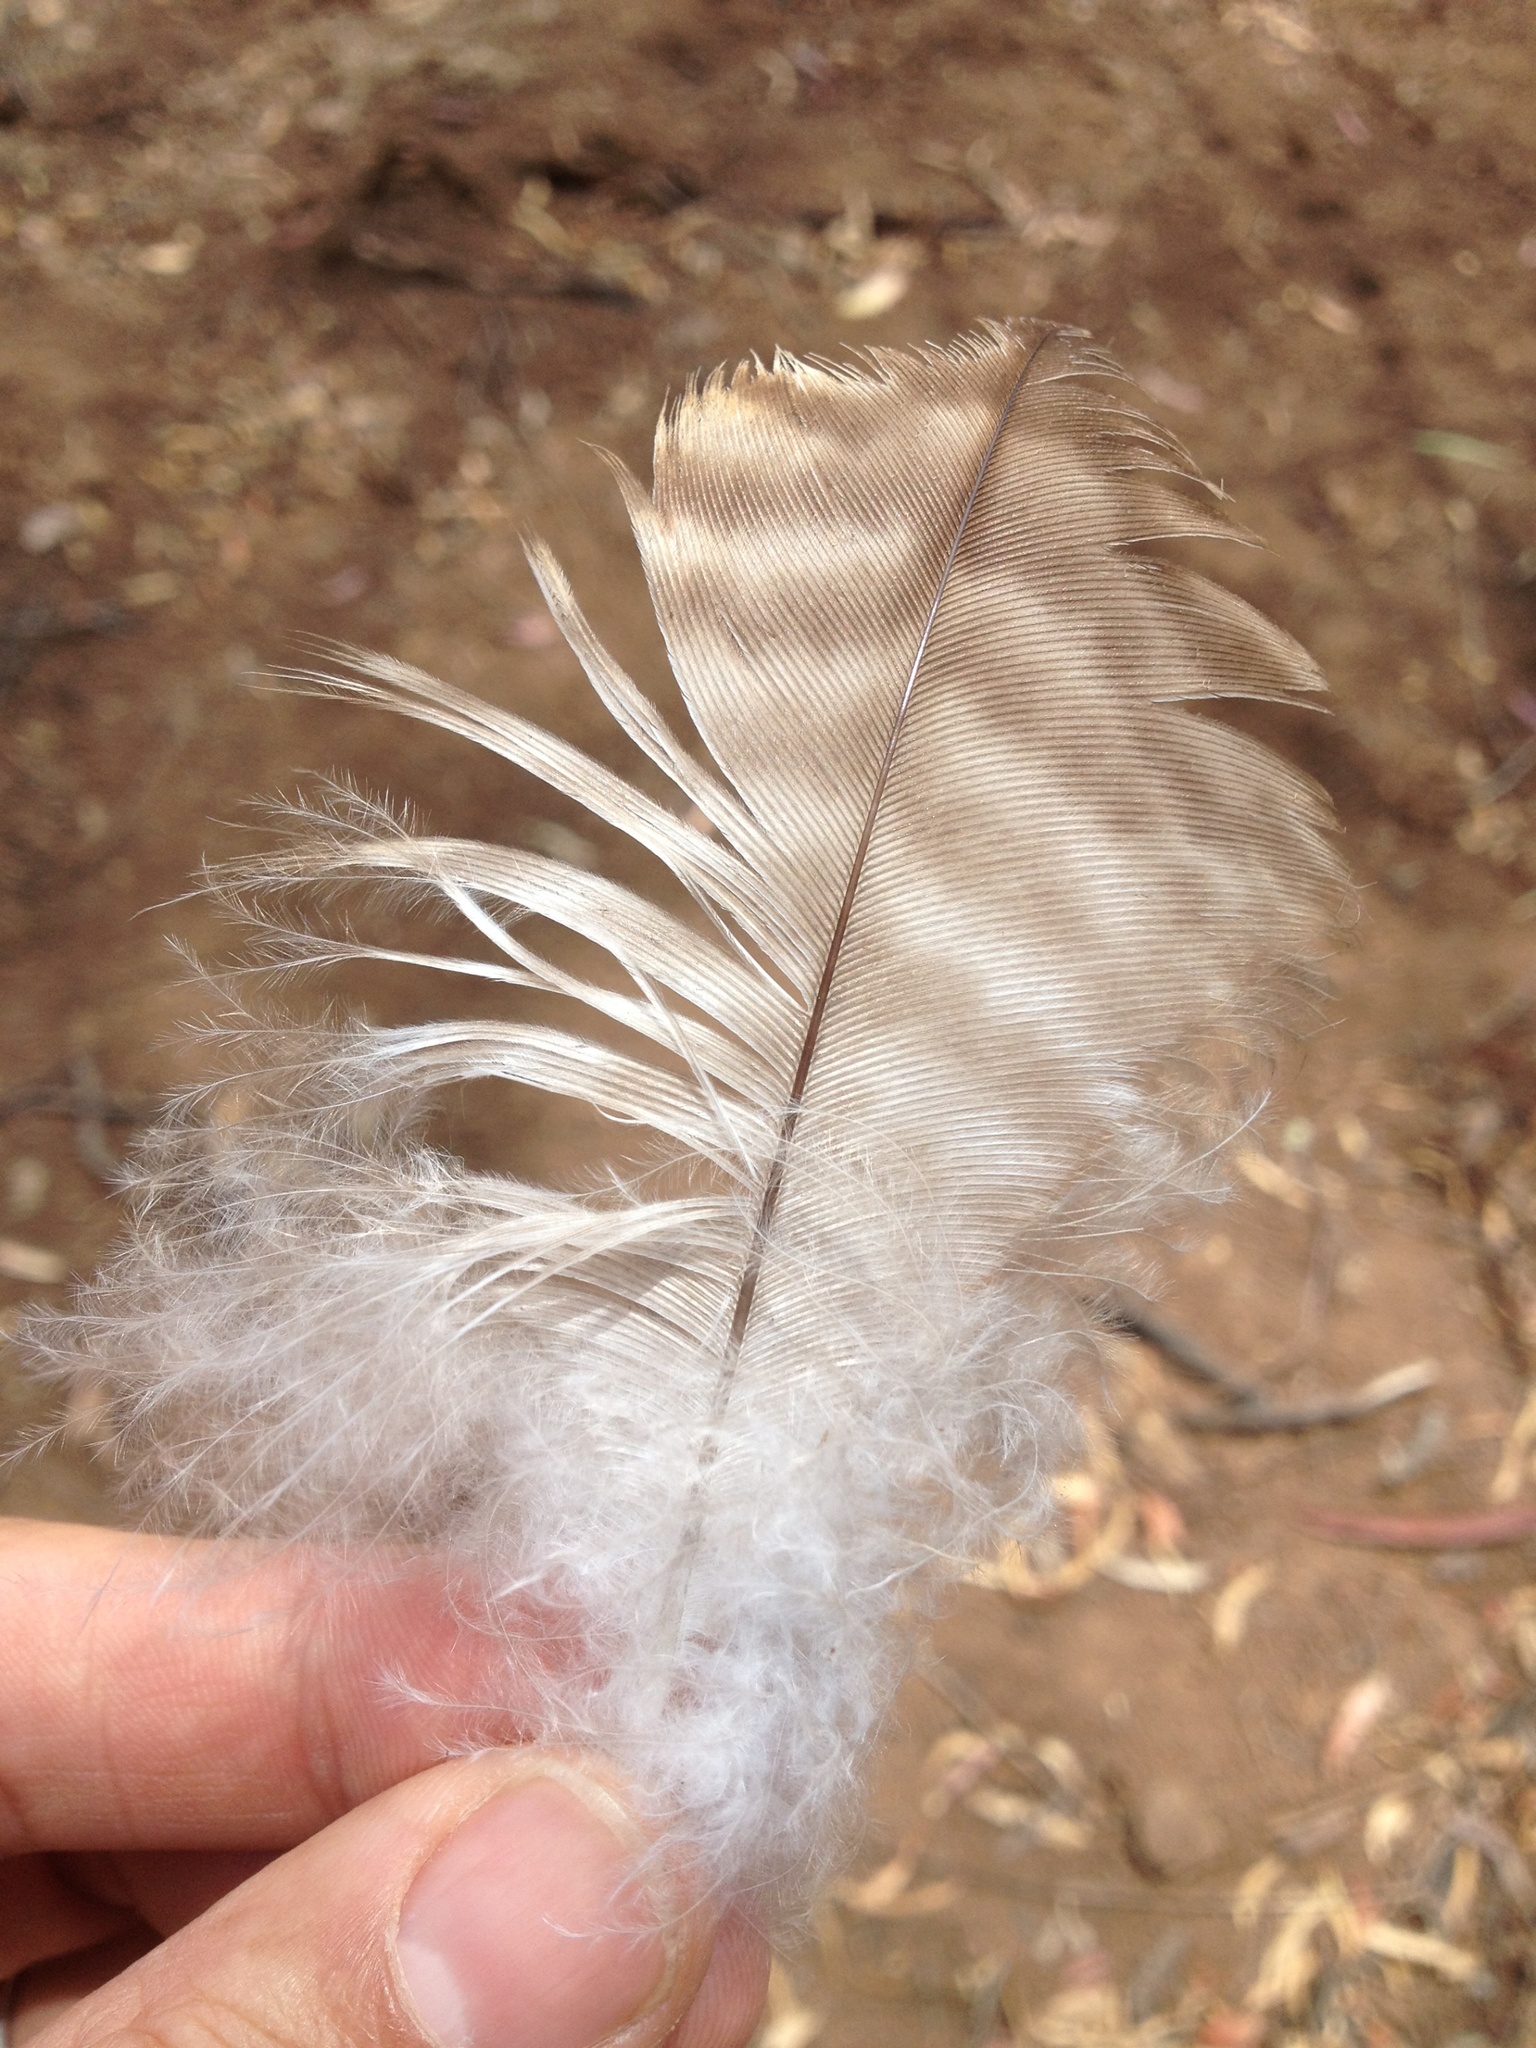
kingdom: Animalia
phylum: Chordata
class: Aves
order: Accipitriformes
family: Accipitridae
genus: Buteo
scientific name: Buteo jamaicensis
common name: Red-tailed hawk
